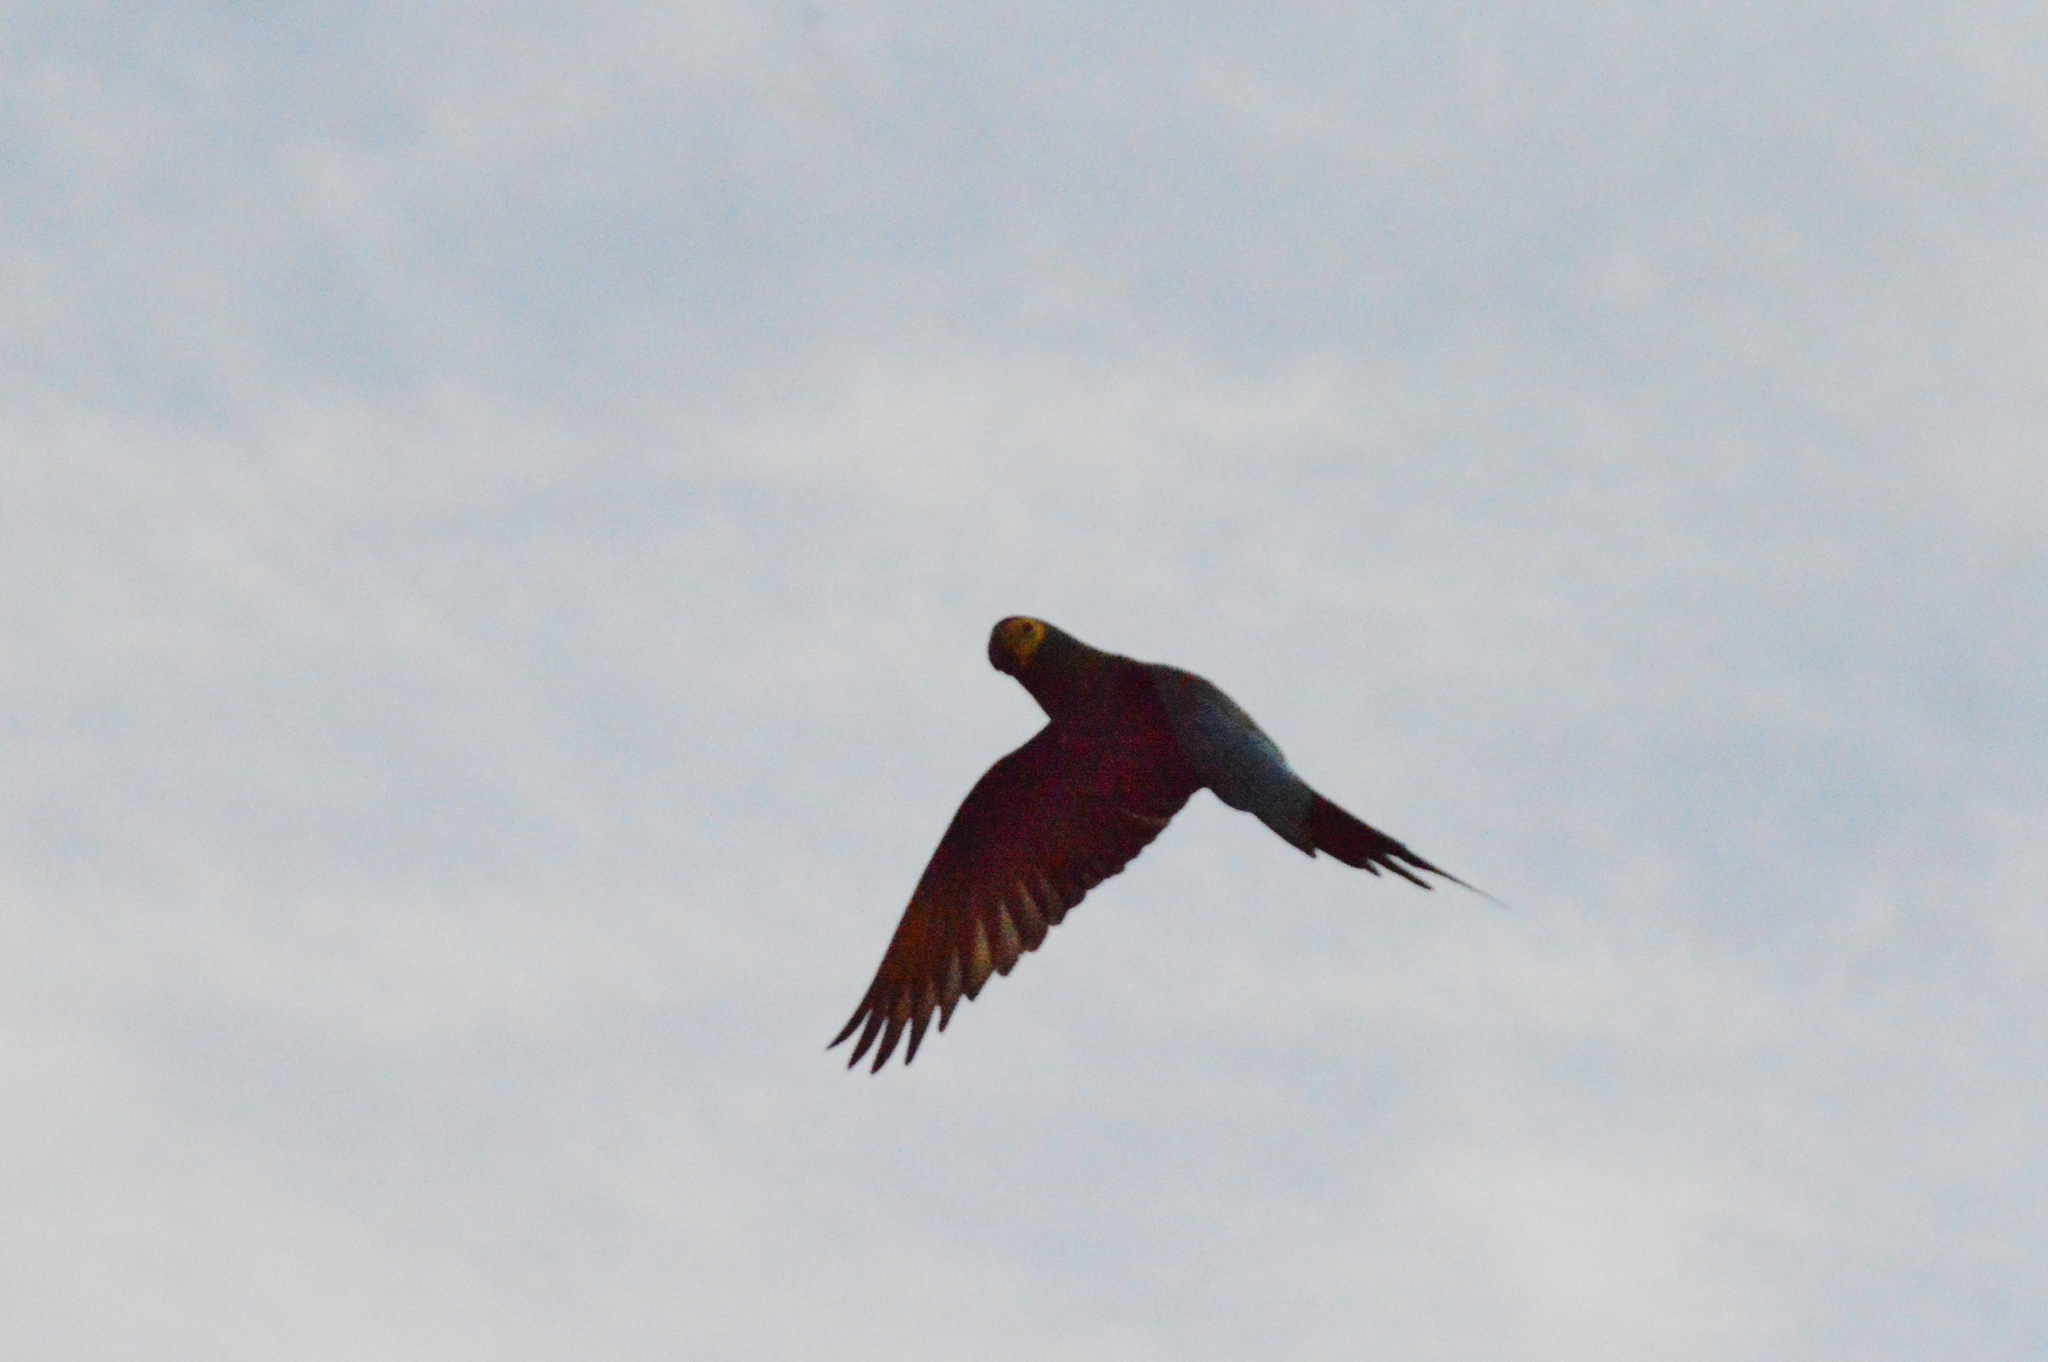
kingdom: Animalia
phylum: Chordata
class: Aves
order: Psittaciformes
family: Psittacidae
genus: Orthopsittaca
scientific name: Orthopsittaca manilata
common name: Red-bellied macaw
